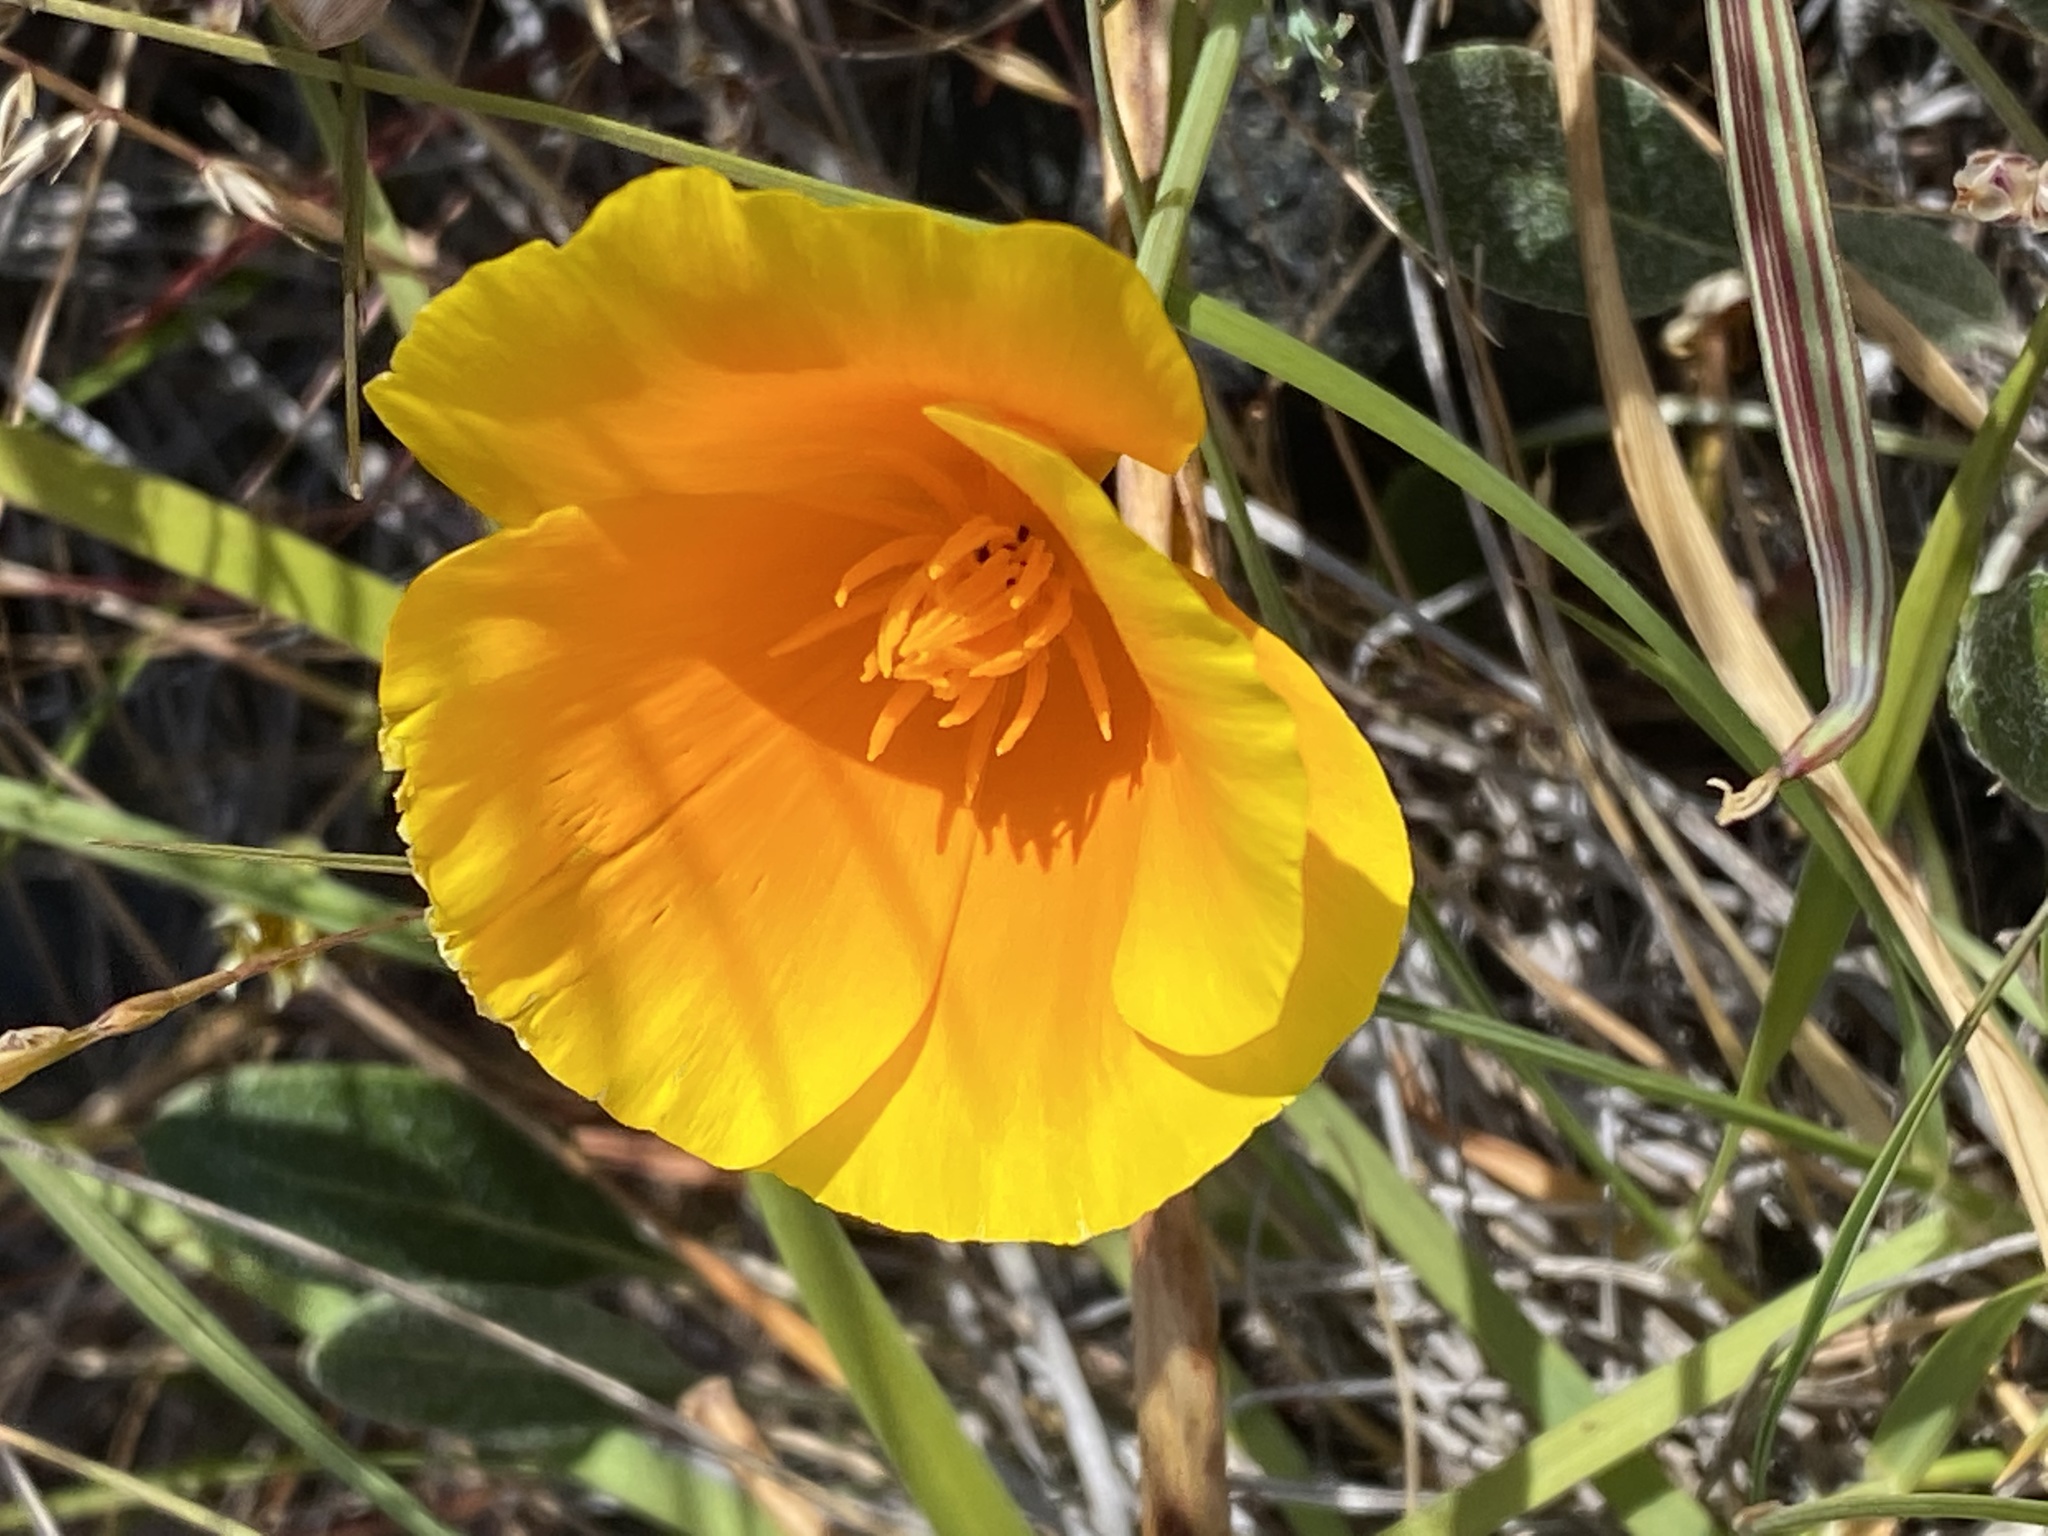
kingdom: Plantae
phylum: Tracheophyta
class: Magnoliopsida
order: Ranunculales
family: Papaveraceae
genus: Eschscholzia
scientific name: Eschscholzia californica
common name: California poppy
